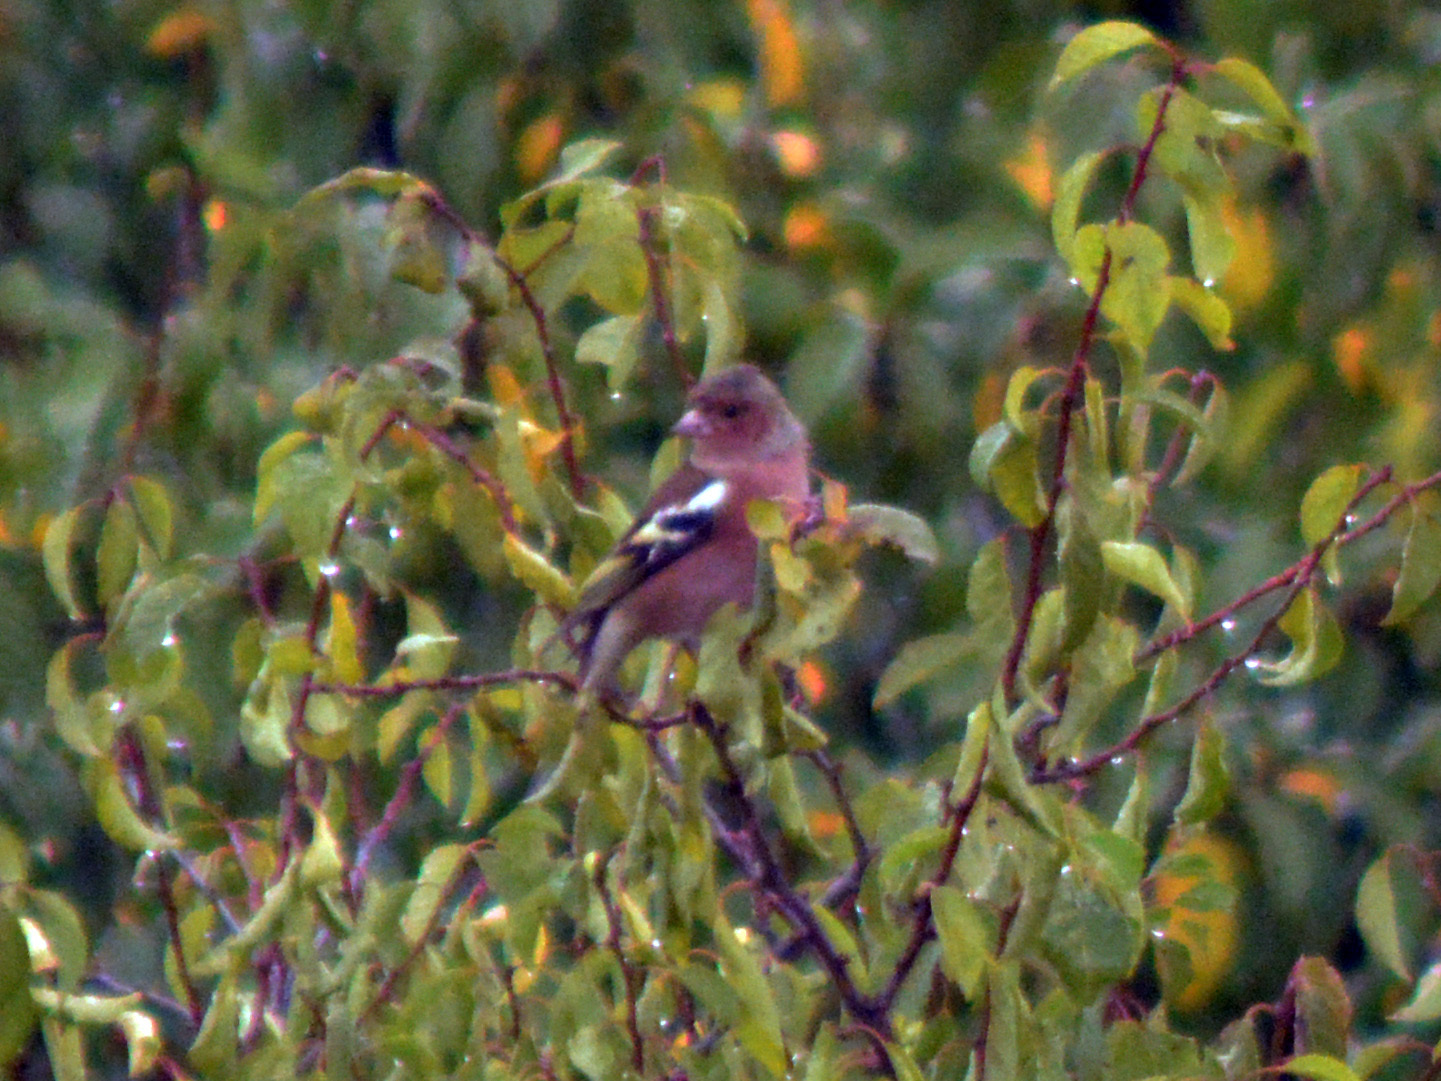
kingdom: Animalia
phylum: Chordata
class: Aves
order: Passeriformes
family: Fringillidae
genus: Fringilla
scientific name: Fringilla coelebs
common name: Common chaffinch
